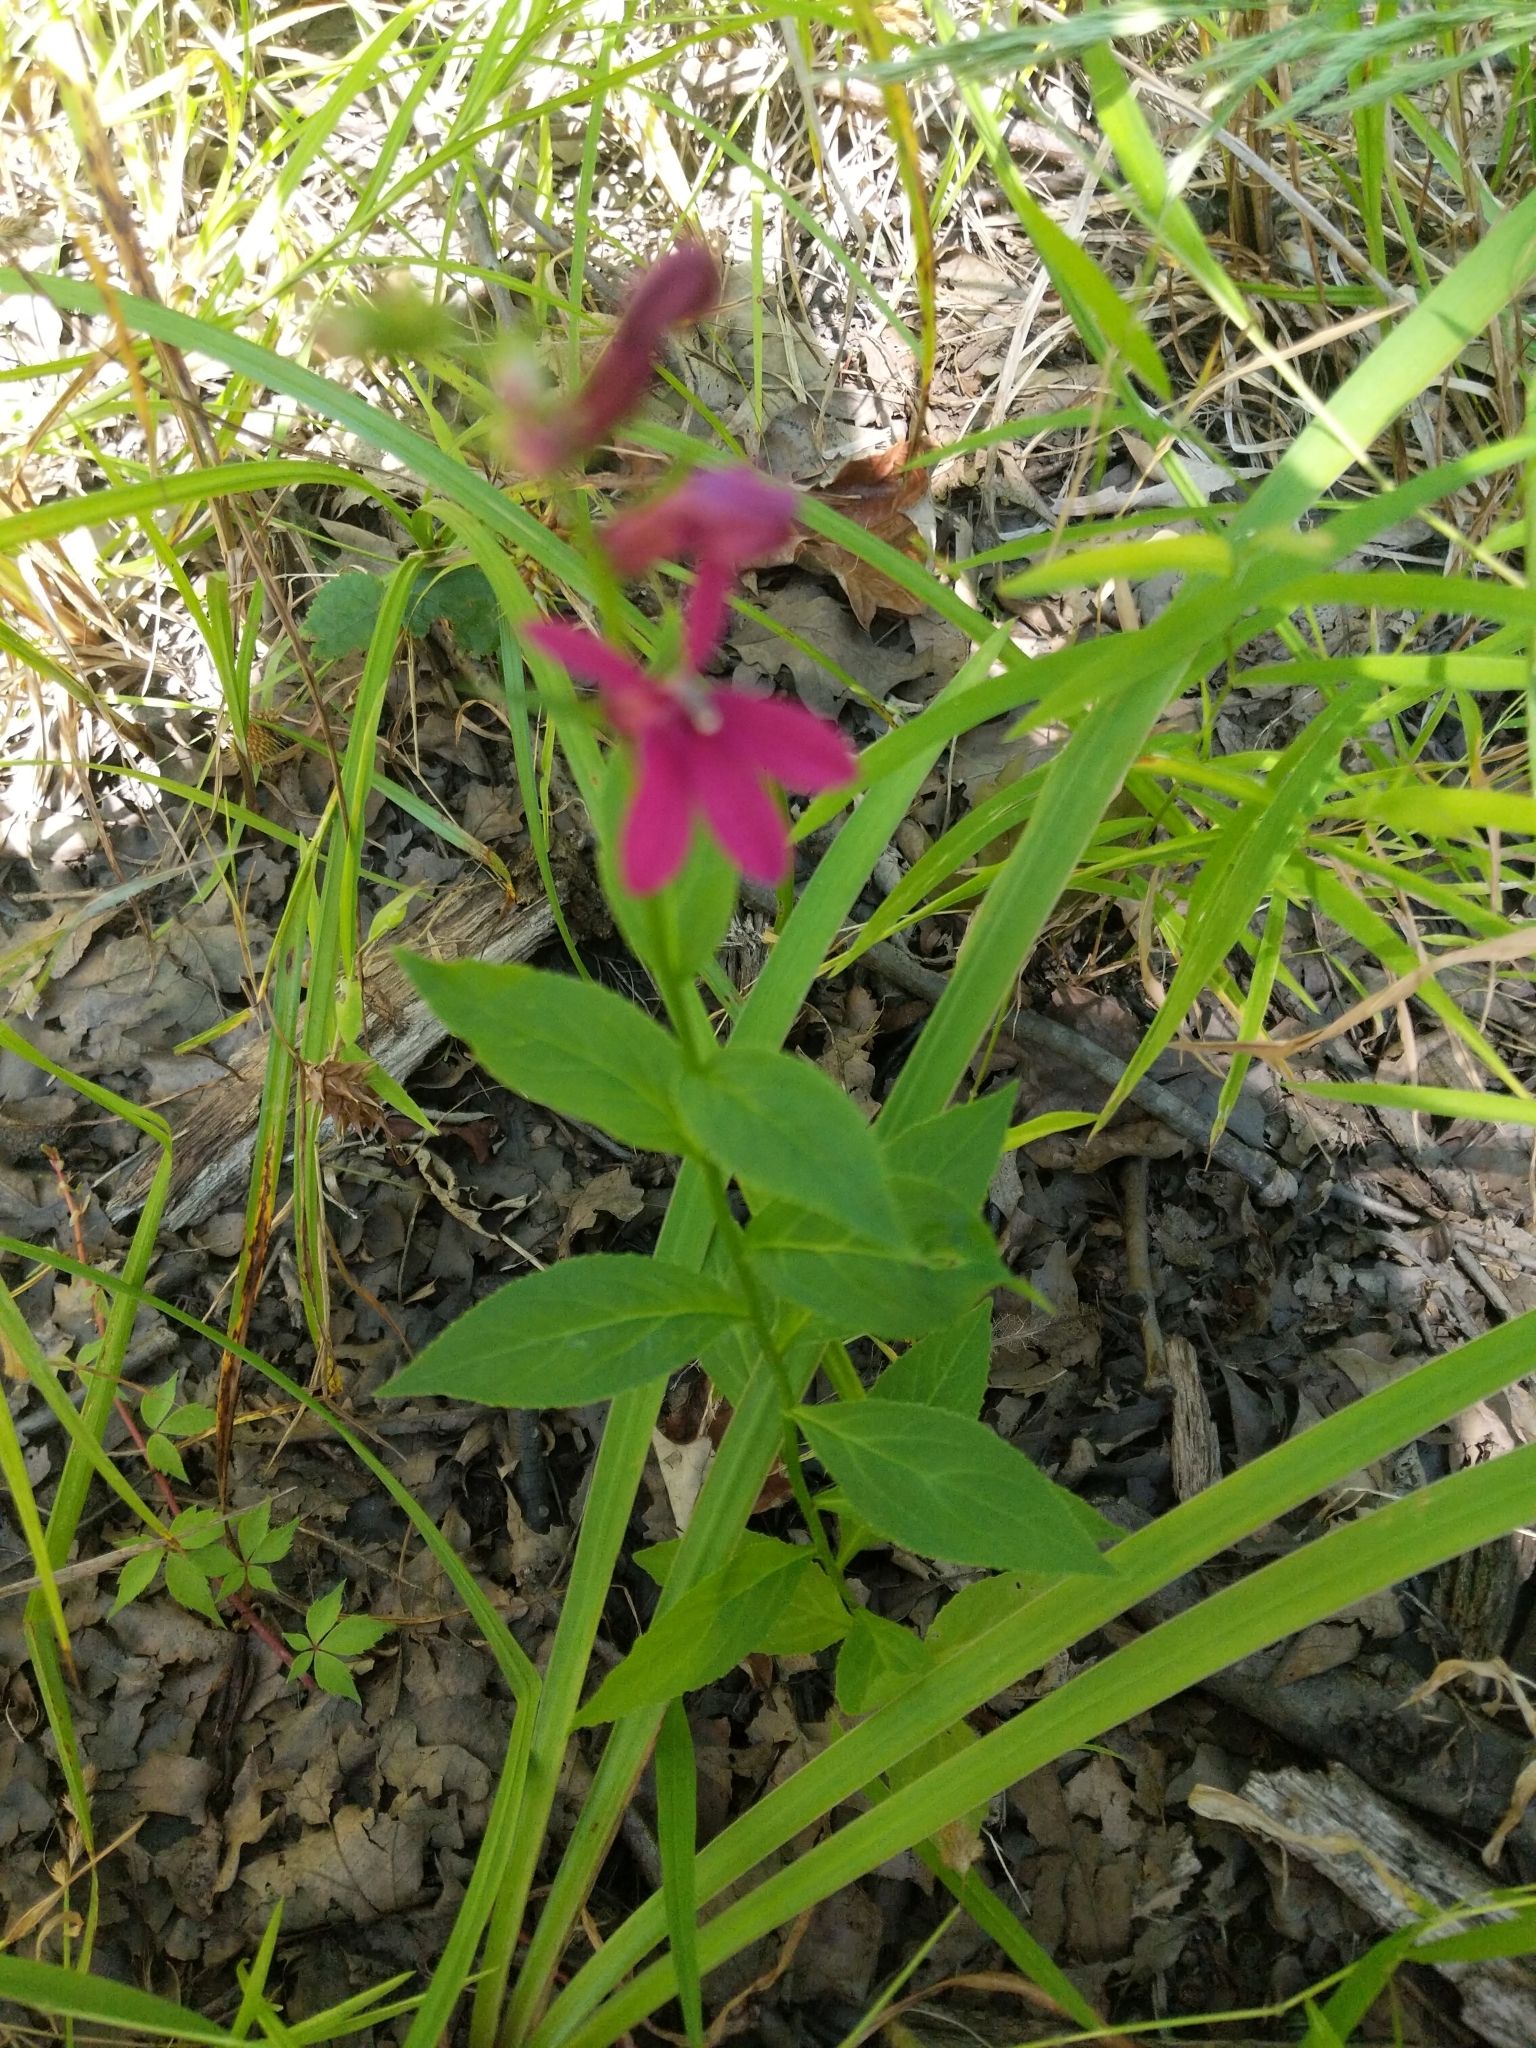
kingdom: Plantae
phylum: Tracheophyta
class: Magnoliopsida
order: Asterales
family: Campanulaceae
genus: Lobelia
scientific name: Lobelia speciosa
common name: Showy lobelia
